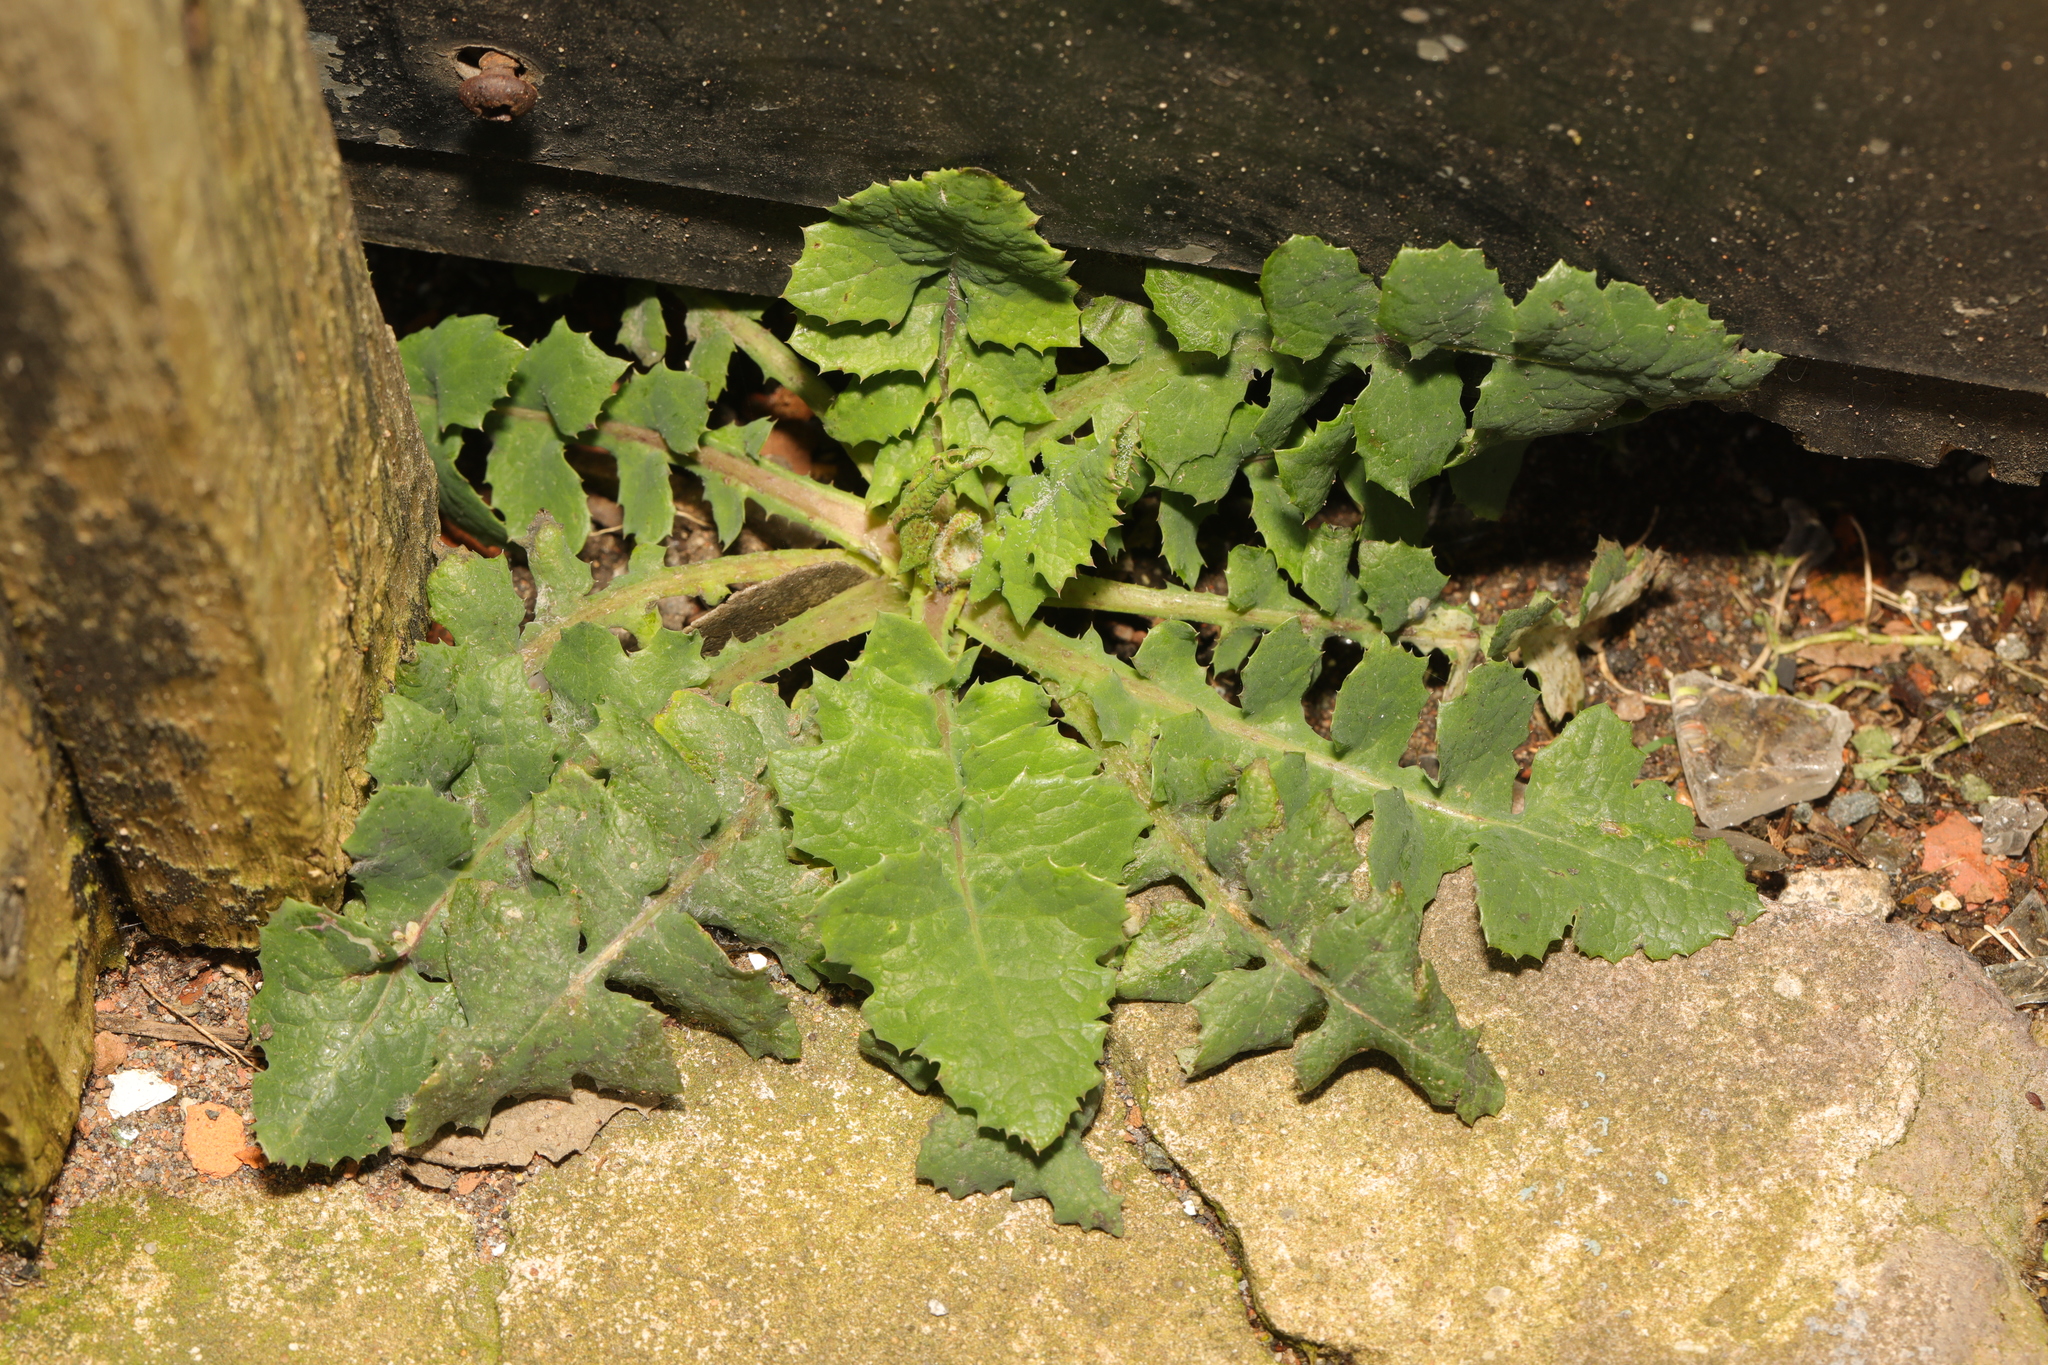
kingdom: Plantae
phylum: Tracheophyta
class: Magnoliopsida
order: Asterales
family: Asteraceae
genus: Sonchus
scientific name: Sonchus oleraceus
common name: Common sowthistle
